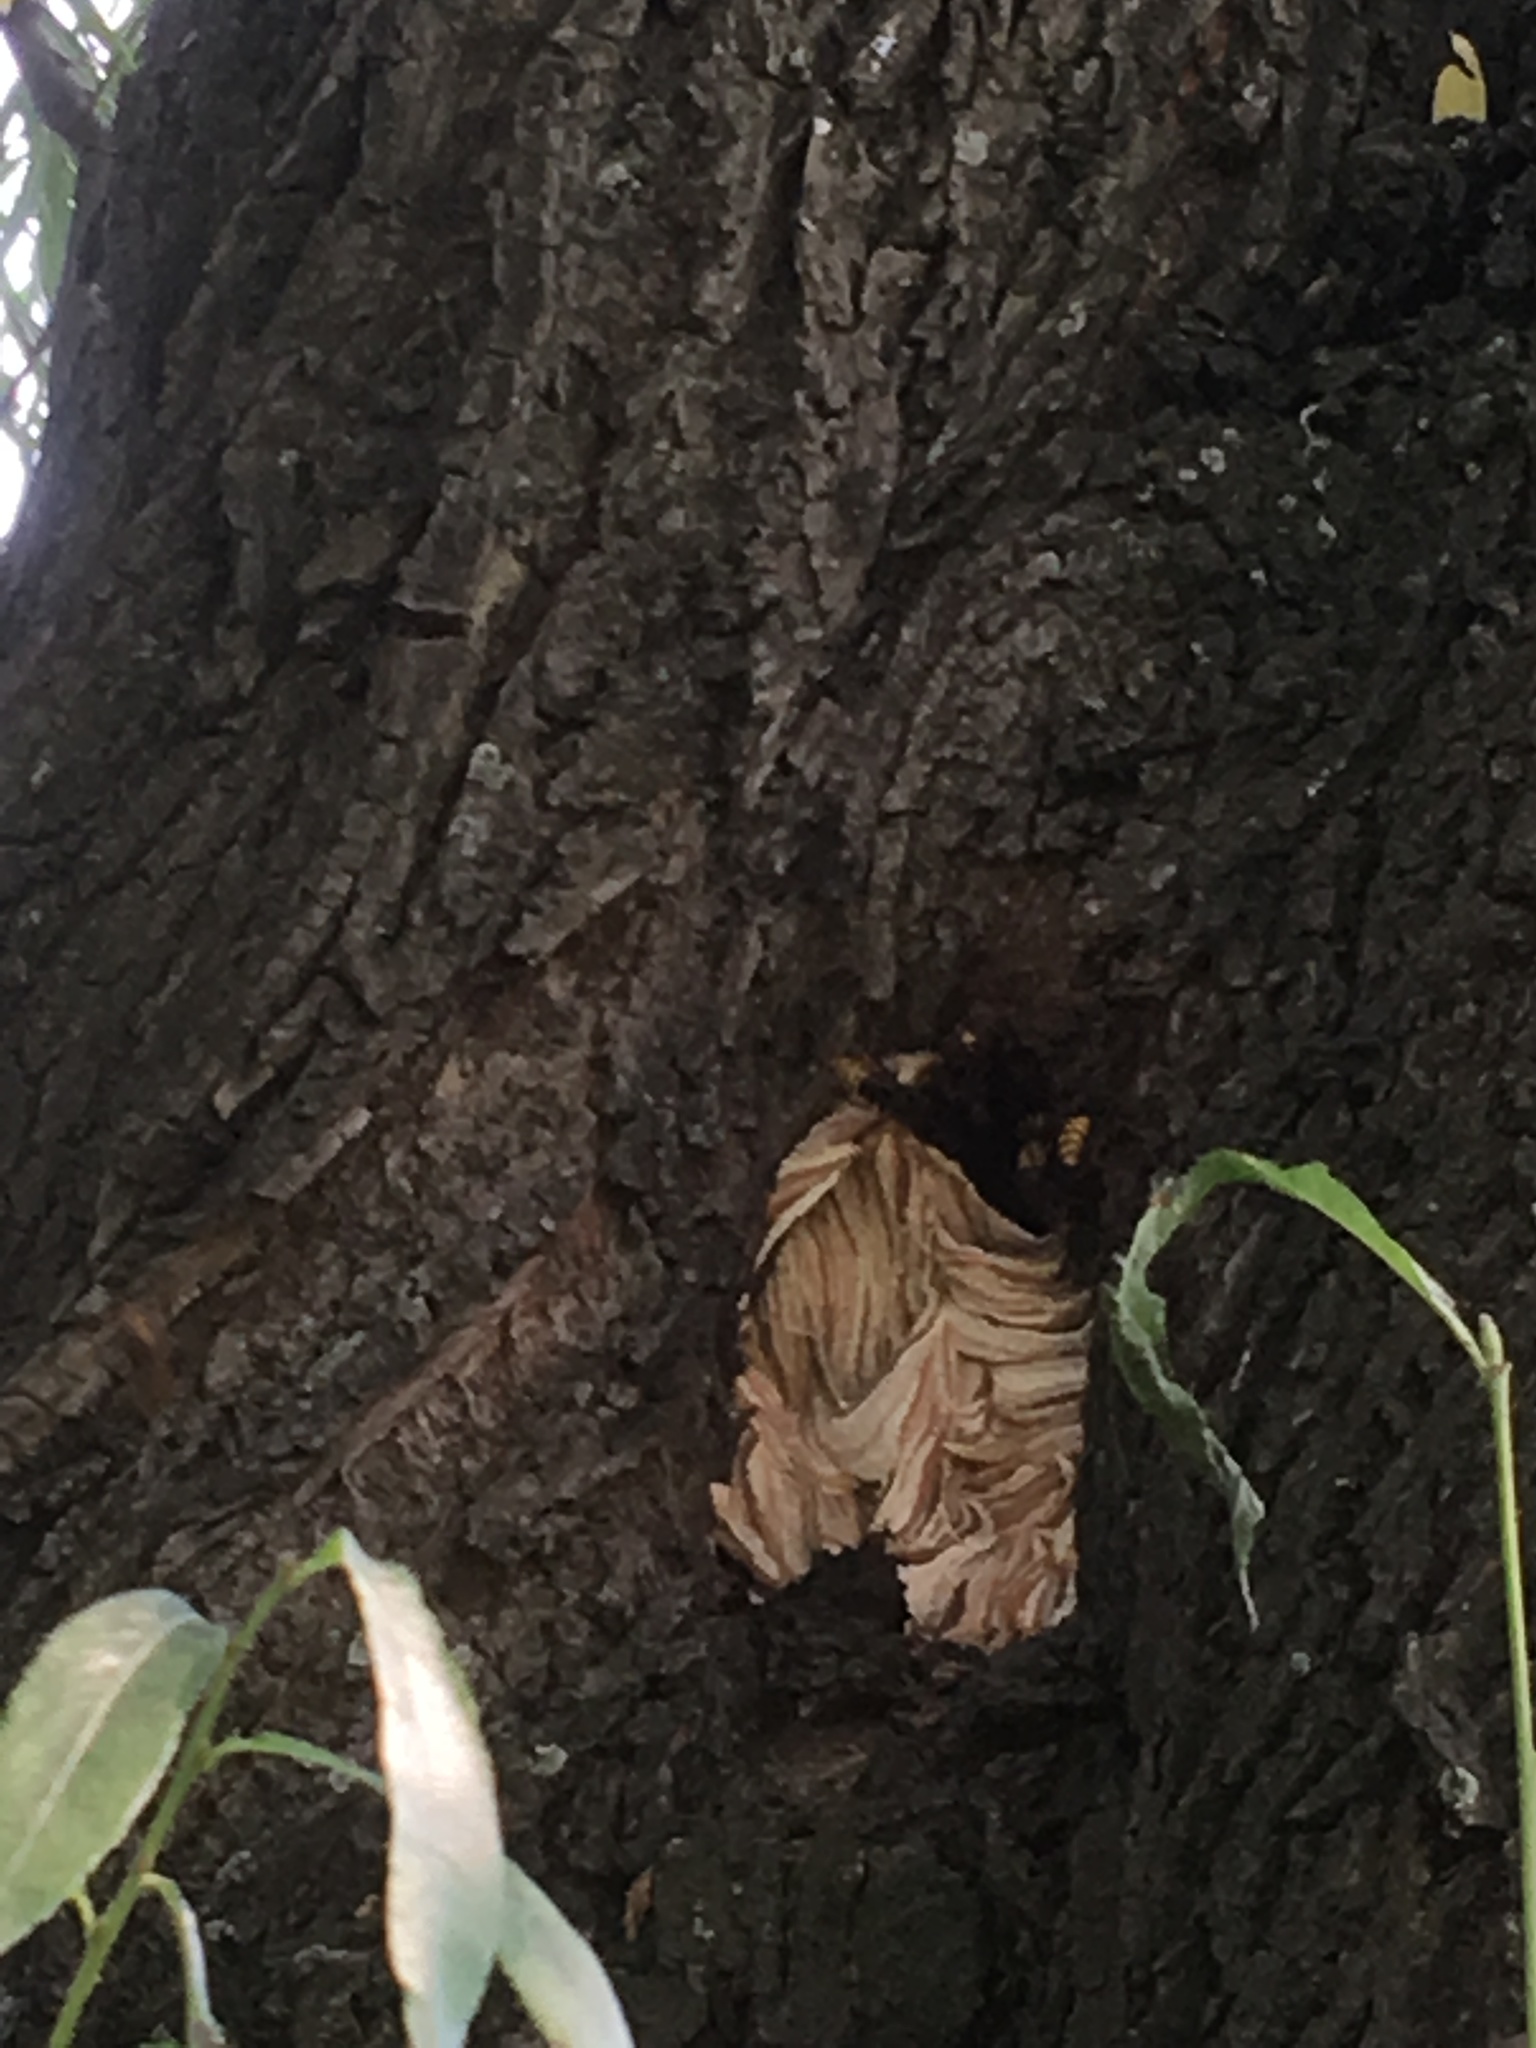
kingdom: Animalia
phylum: Arthropoda
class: Insecta
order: Hymenoptera
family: Vespidae
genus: Vespa
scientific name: Vespa crabro
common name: Hornet
